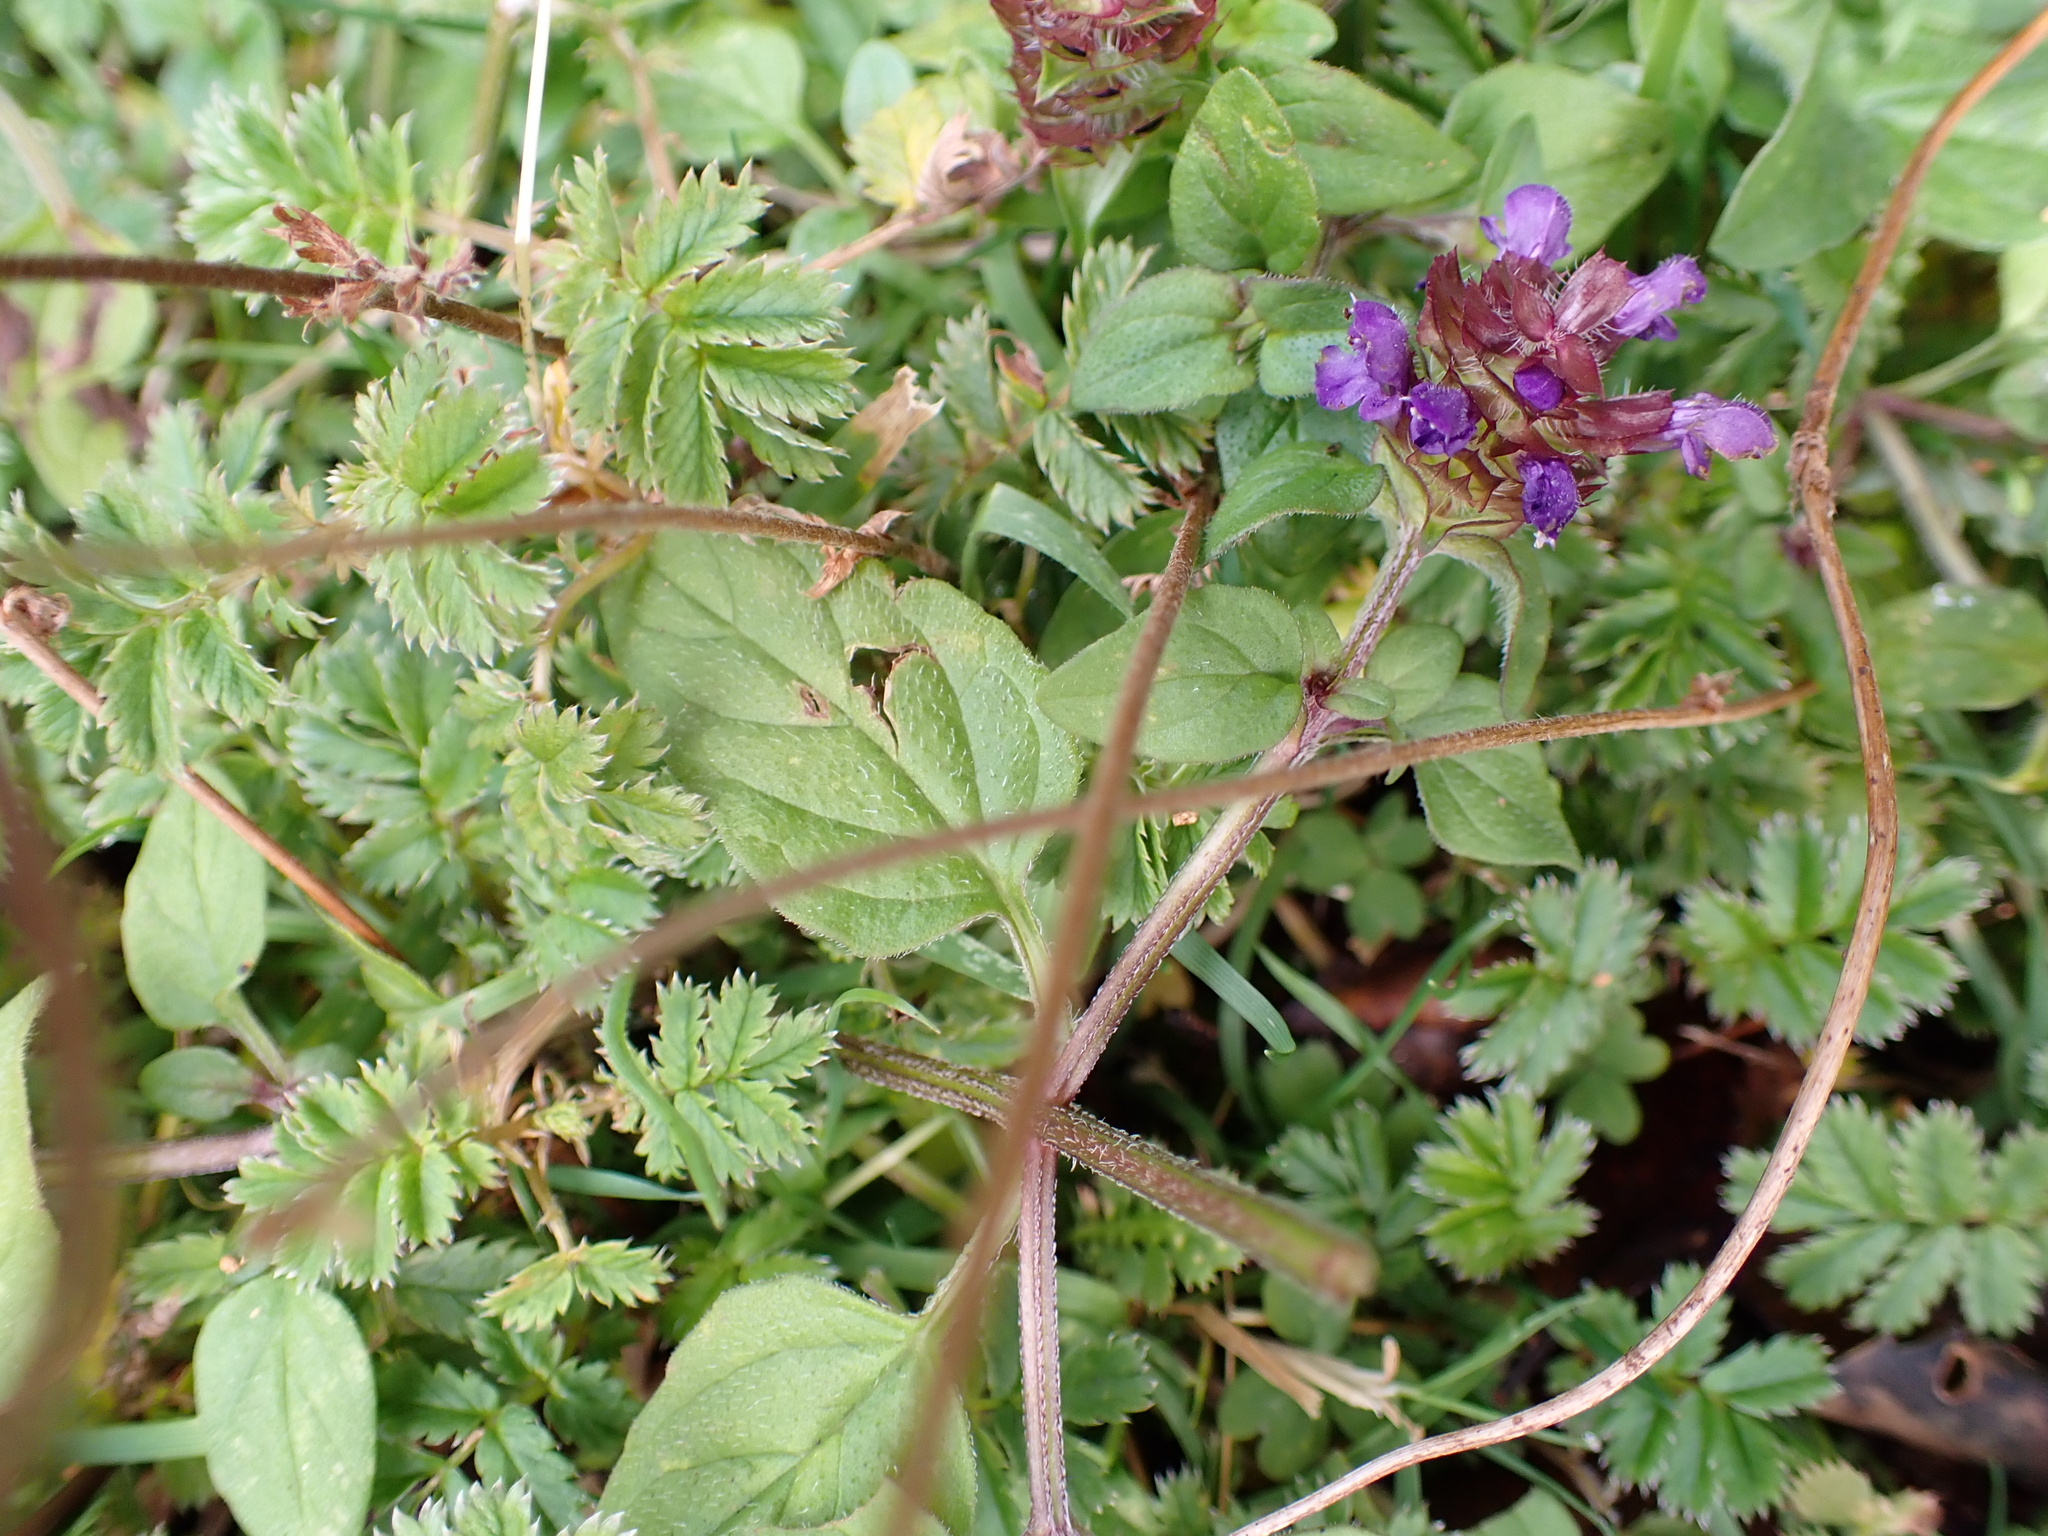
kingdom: Plantae
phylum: Tracheophyta
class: Magnoliopsida
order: Lamiales
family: Lamiaceae
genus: Prunella
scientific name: Prunella vulgaris
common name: Heal-all
